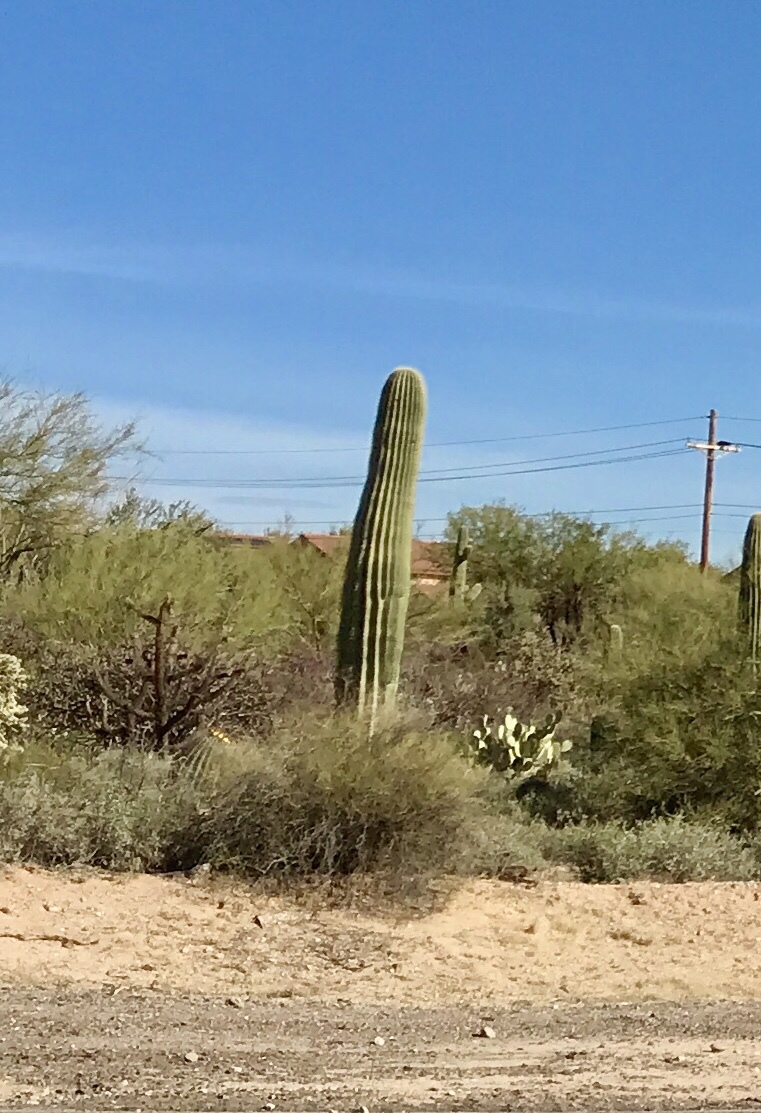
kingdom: Plantae
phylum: Tracheophyta
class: Magnoliopsida
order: Caryophyllales
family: Cactaceae
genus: Carnegiea
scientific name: Carnegiea gigantea
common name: Saguaro
